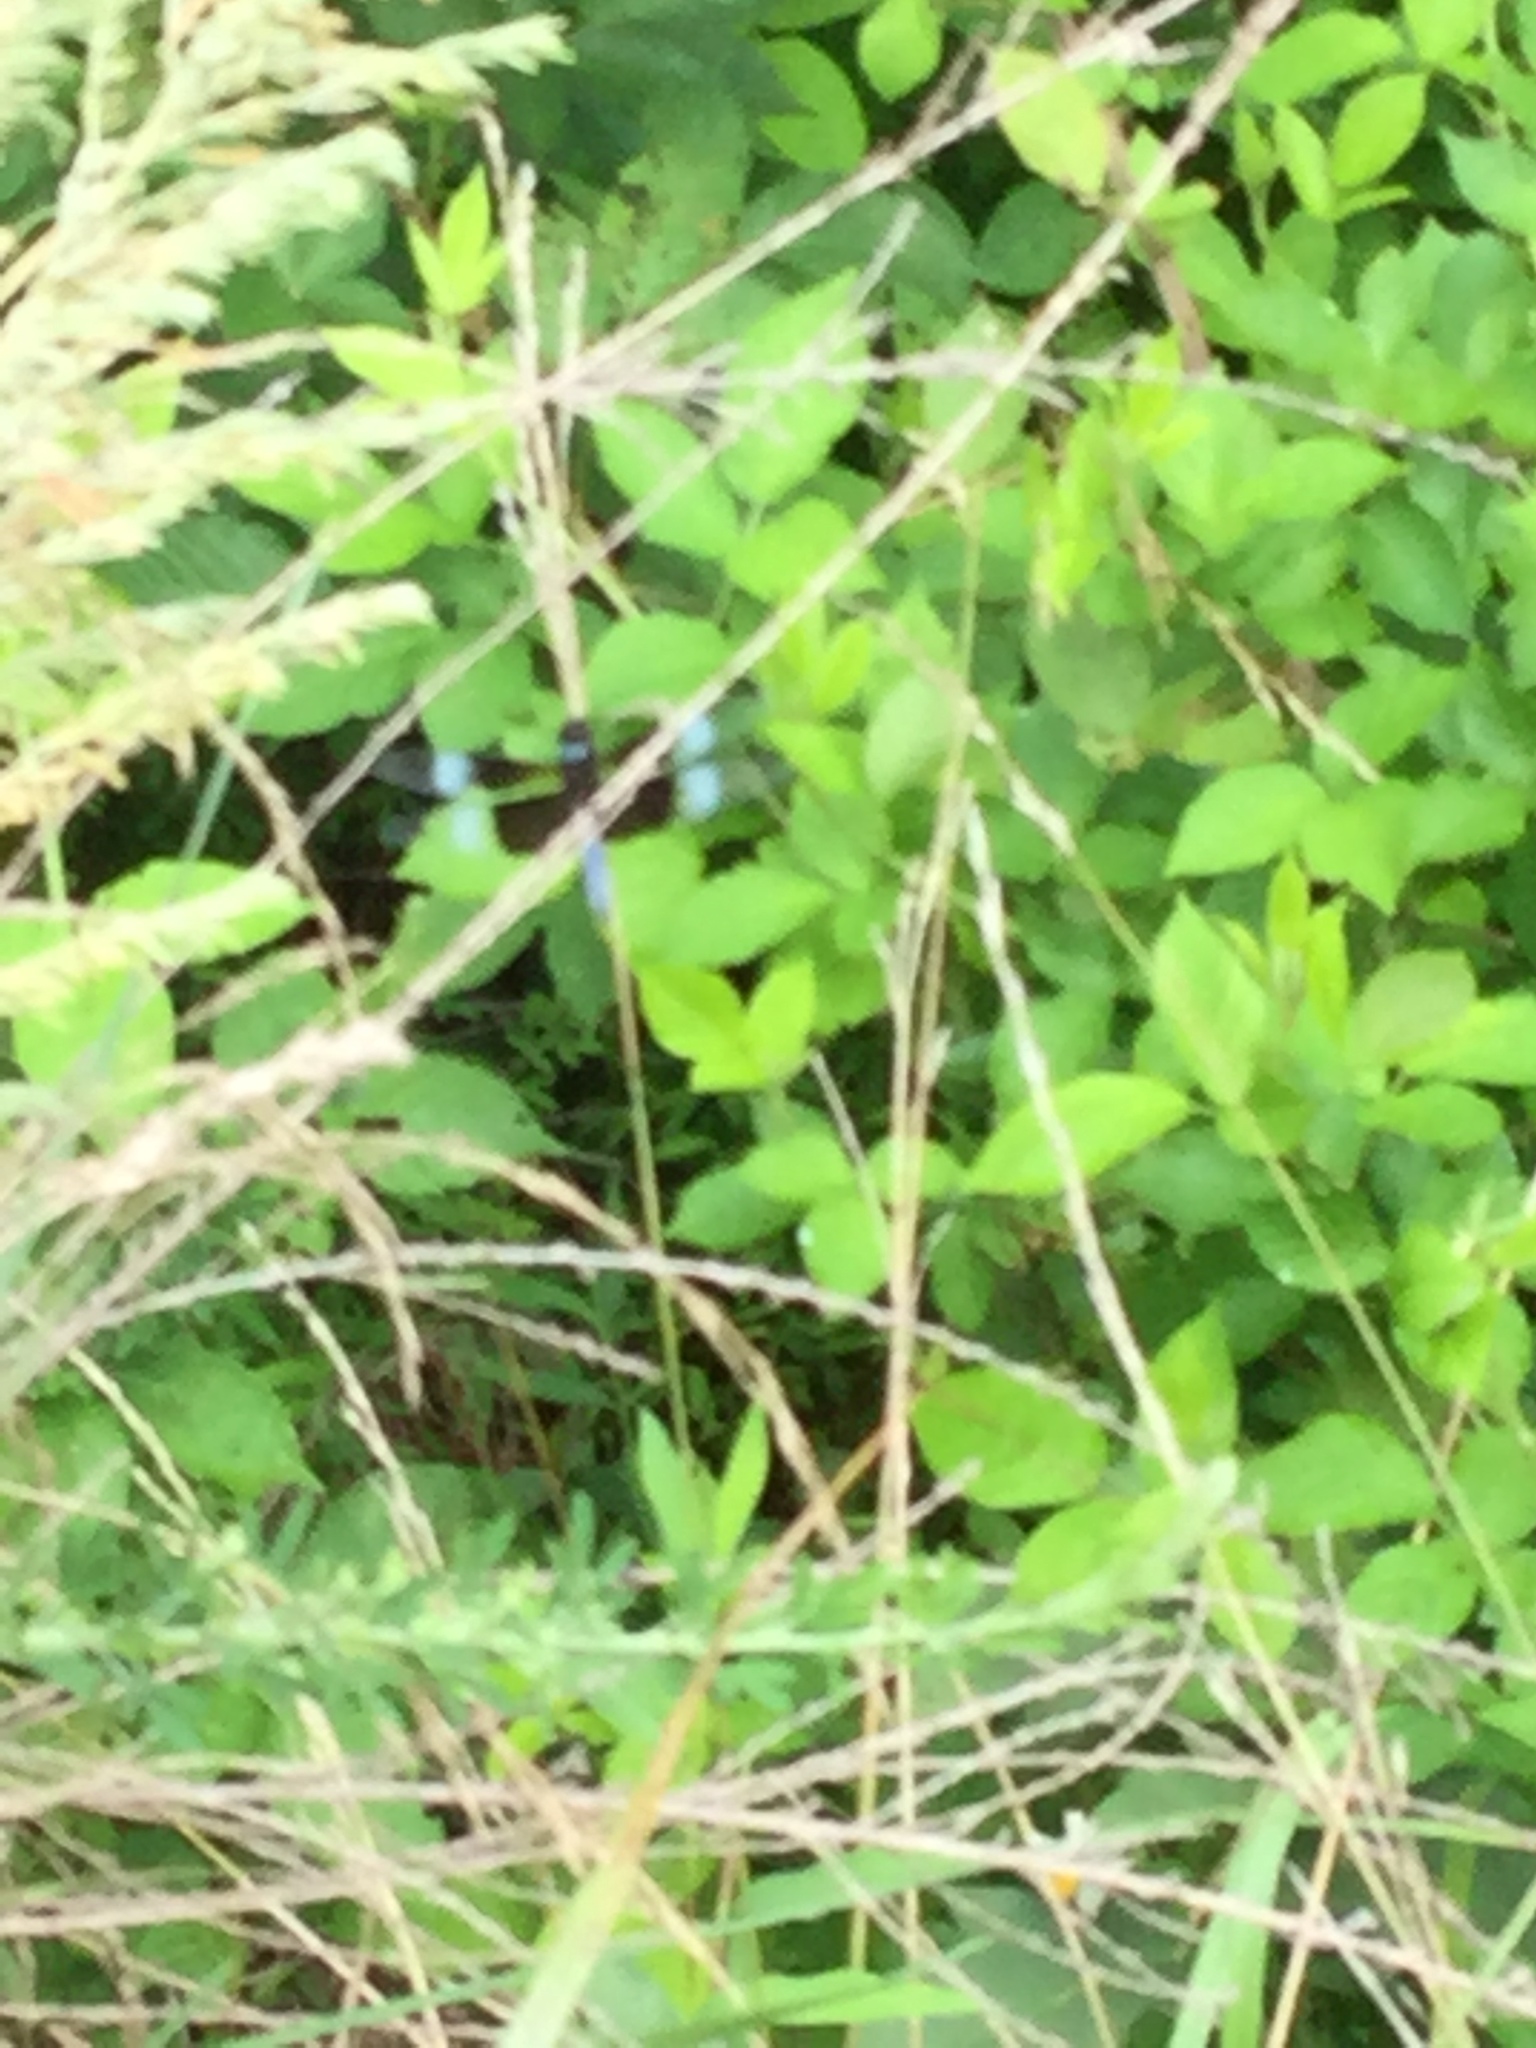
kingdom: Animalia
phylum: Arthropoda
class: Insecta
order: Odonata
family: Libellulidae
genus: Libellula
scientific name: Libellula luctuosa
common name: Widow skimmer
